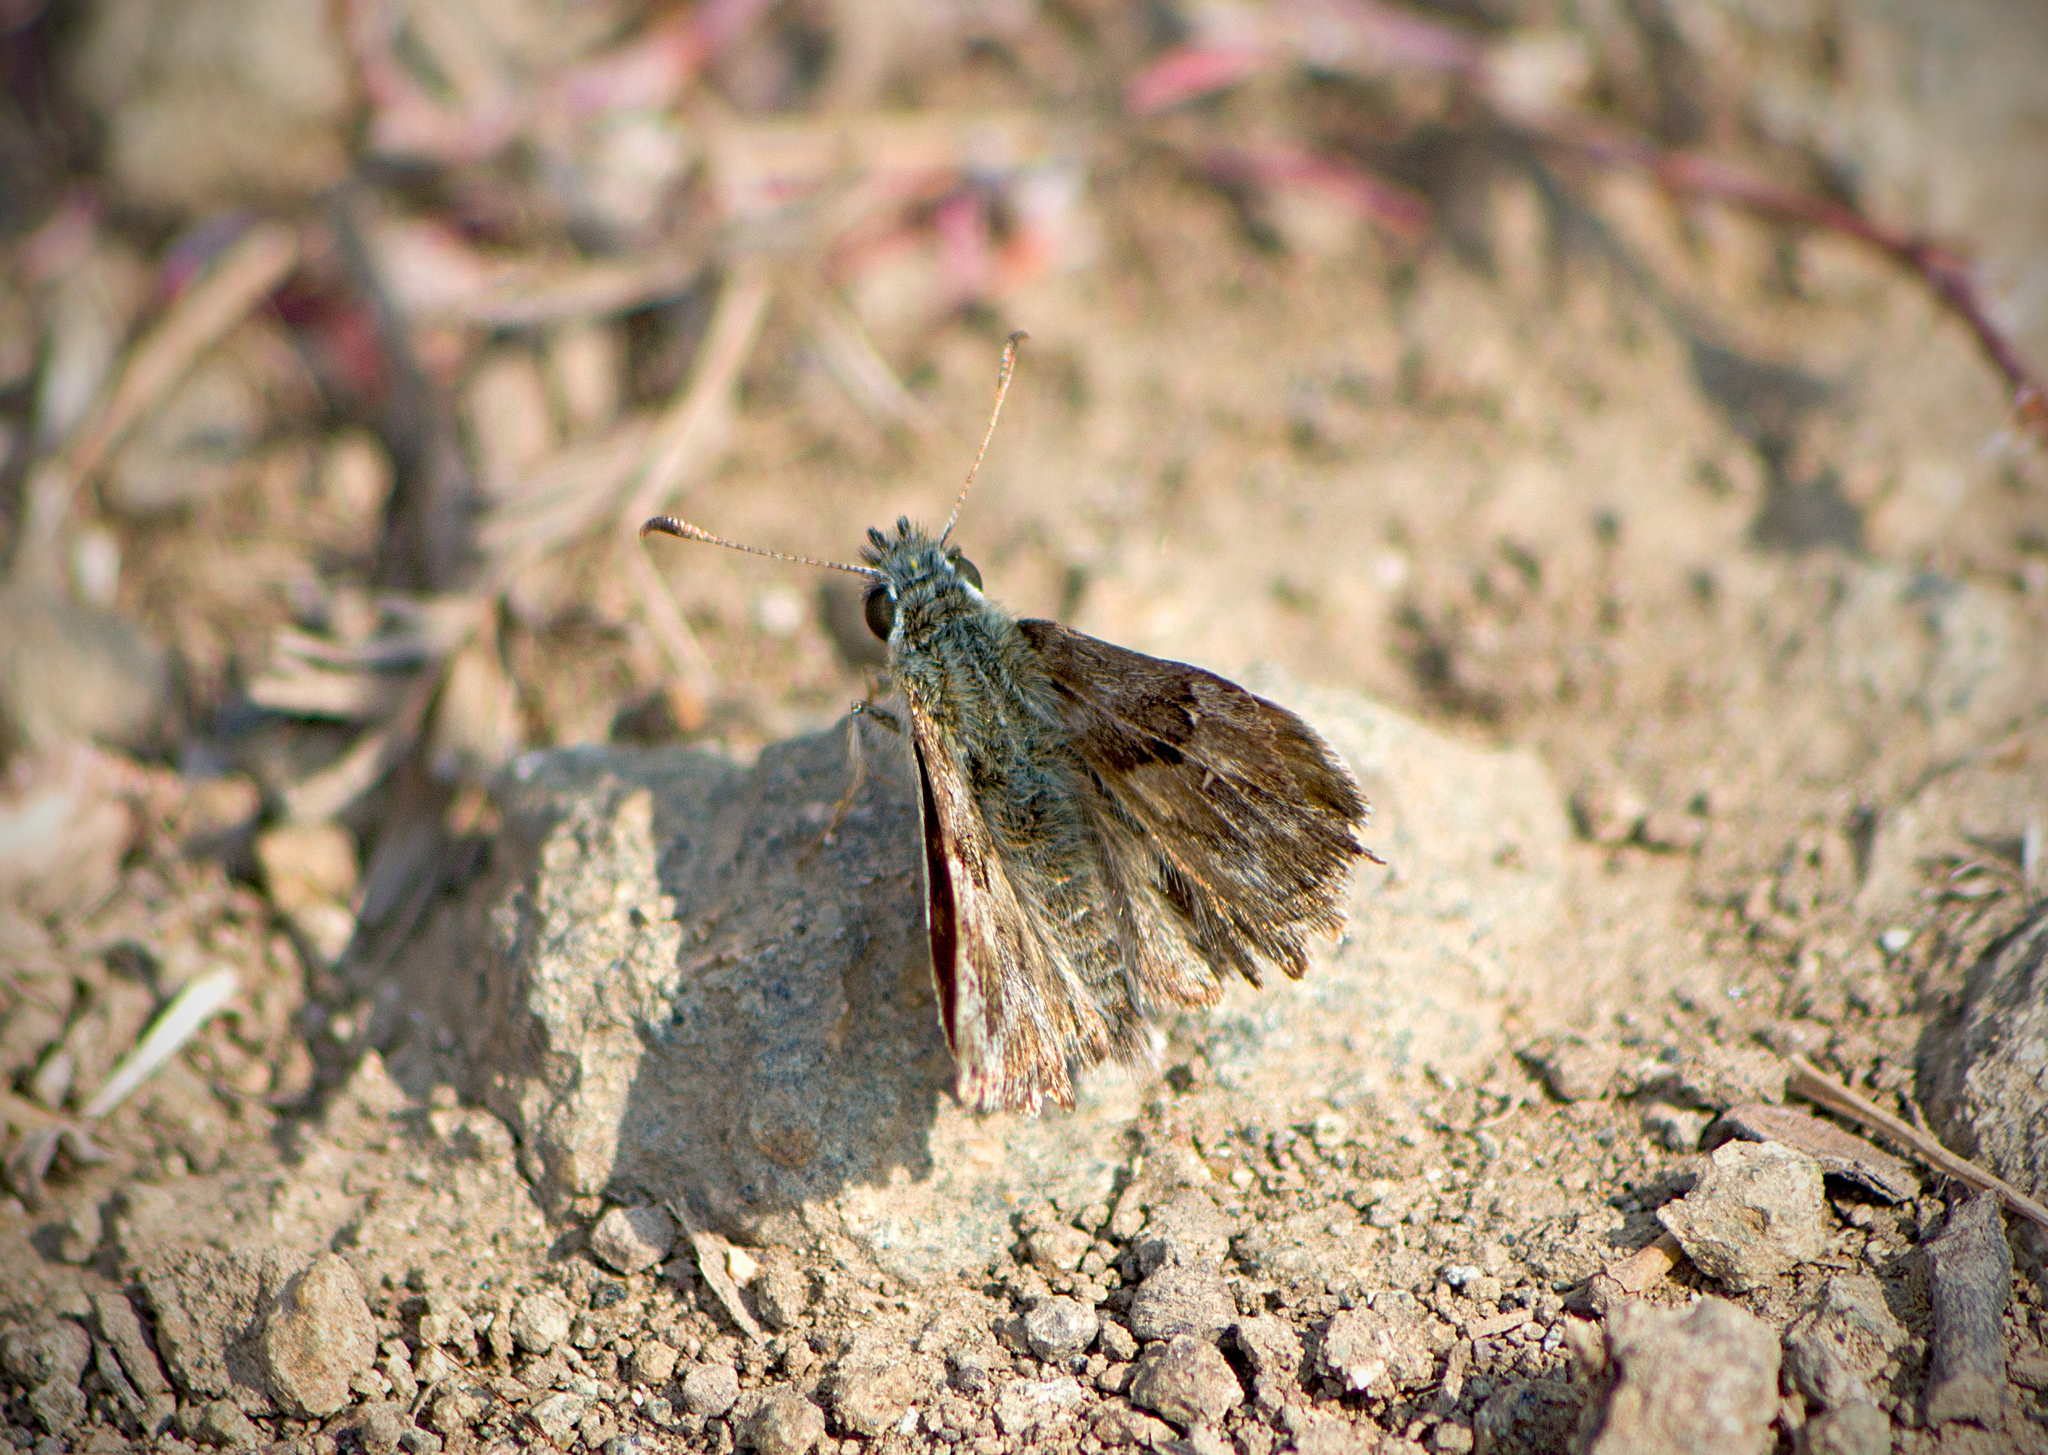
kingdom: Animalia
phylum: Arthropoda
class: Insecta
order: Lepidoptera
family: Hesperiidae
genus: Carcharodus
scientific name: Carcharodus alceae
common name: Mallow skipper
